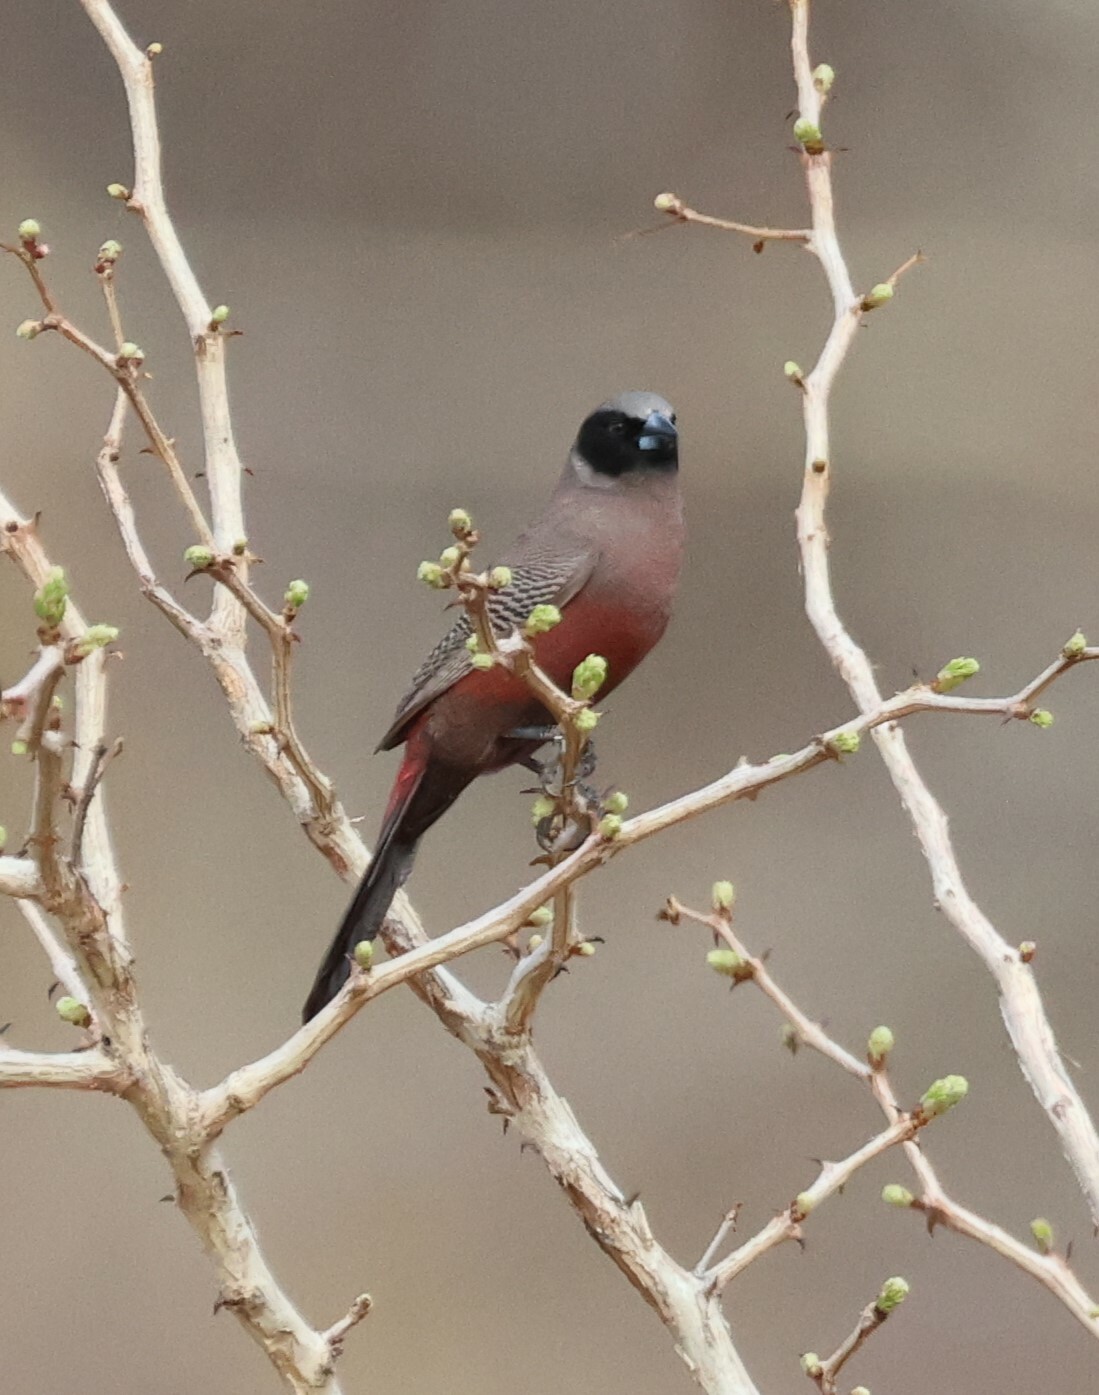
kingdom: Animalia
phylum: Chordata
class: Aves
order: Passeriformes
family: Estrildidae
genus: Estrilda
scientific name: Estrilda erythronotos
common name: Black-faced waxbill
